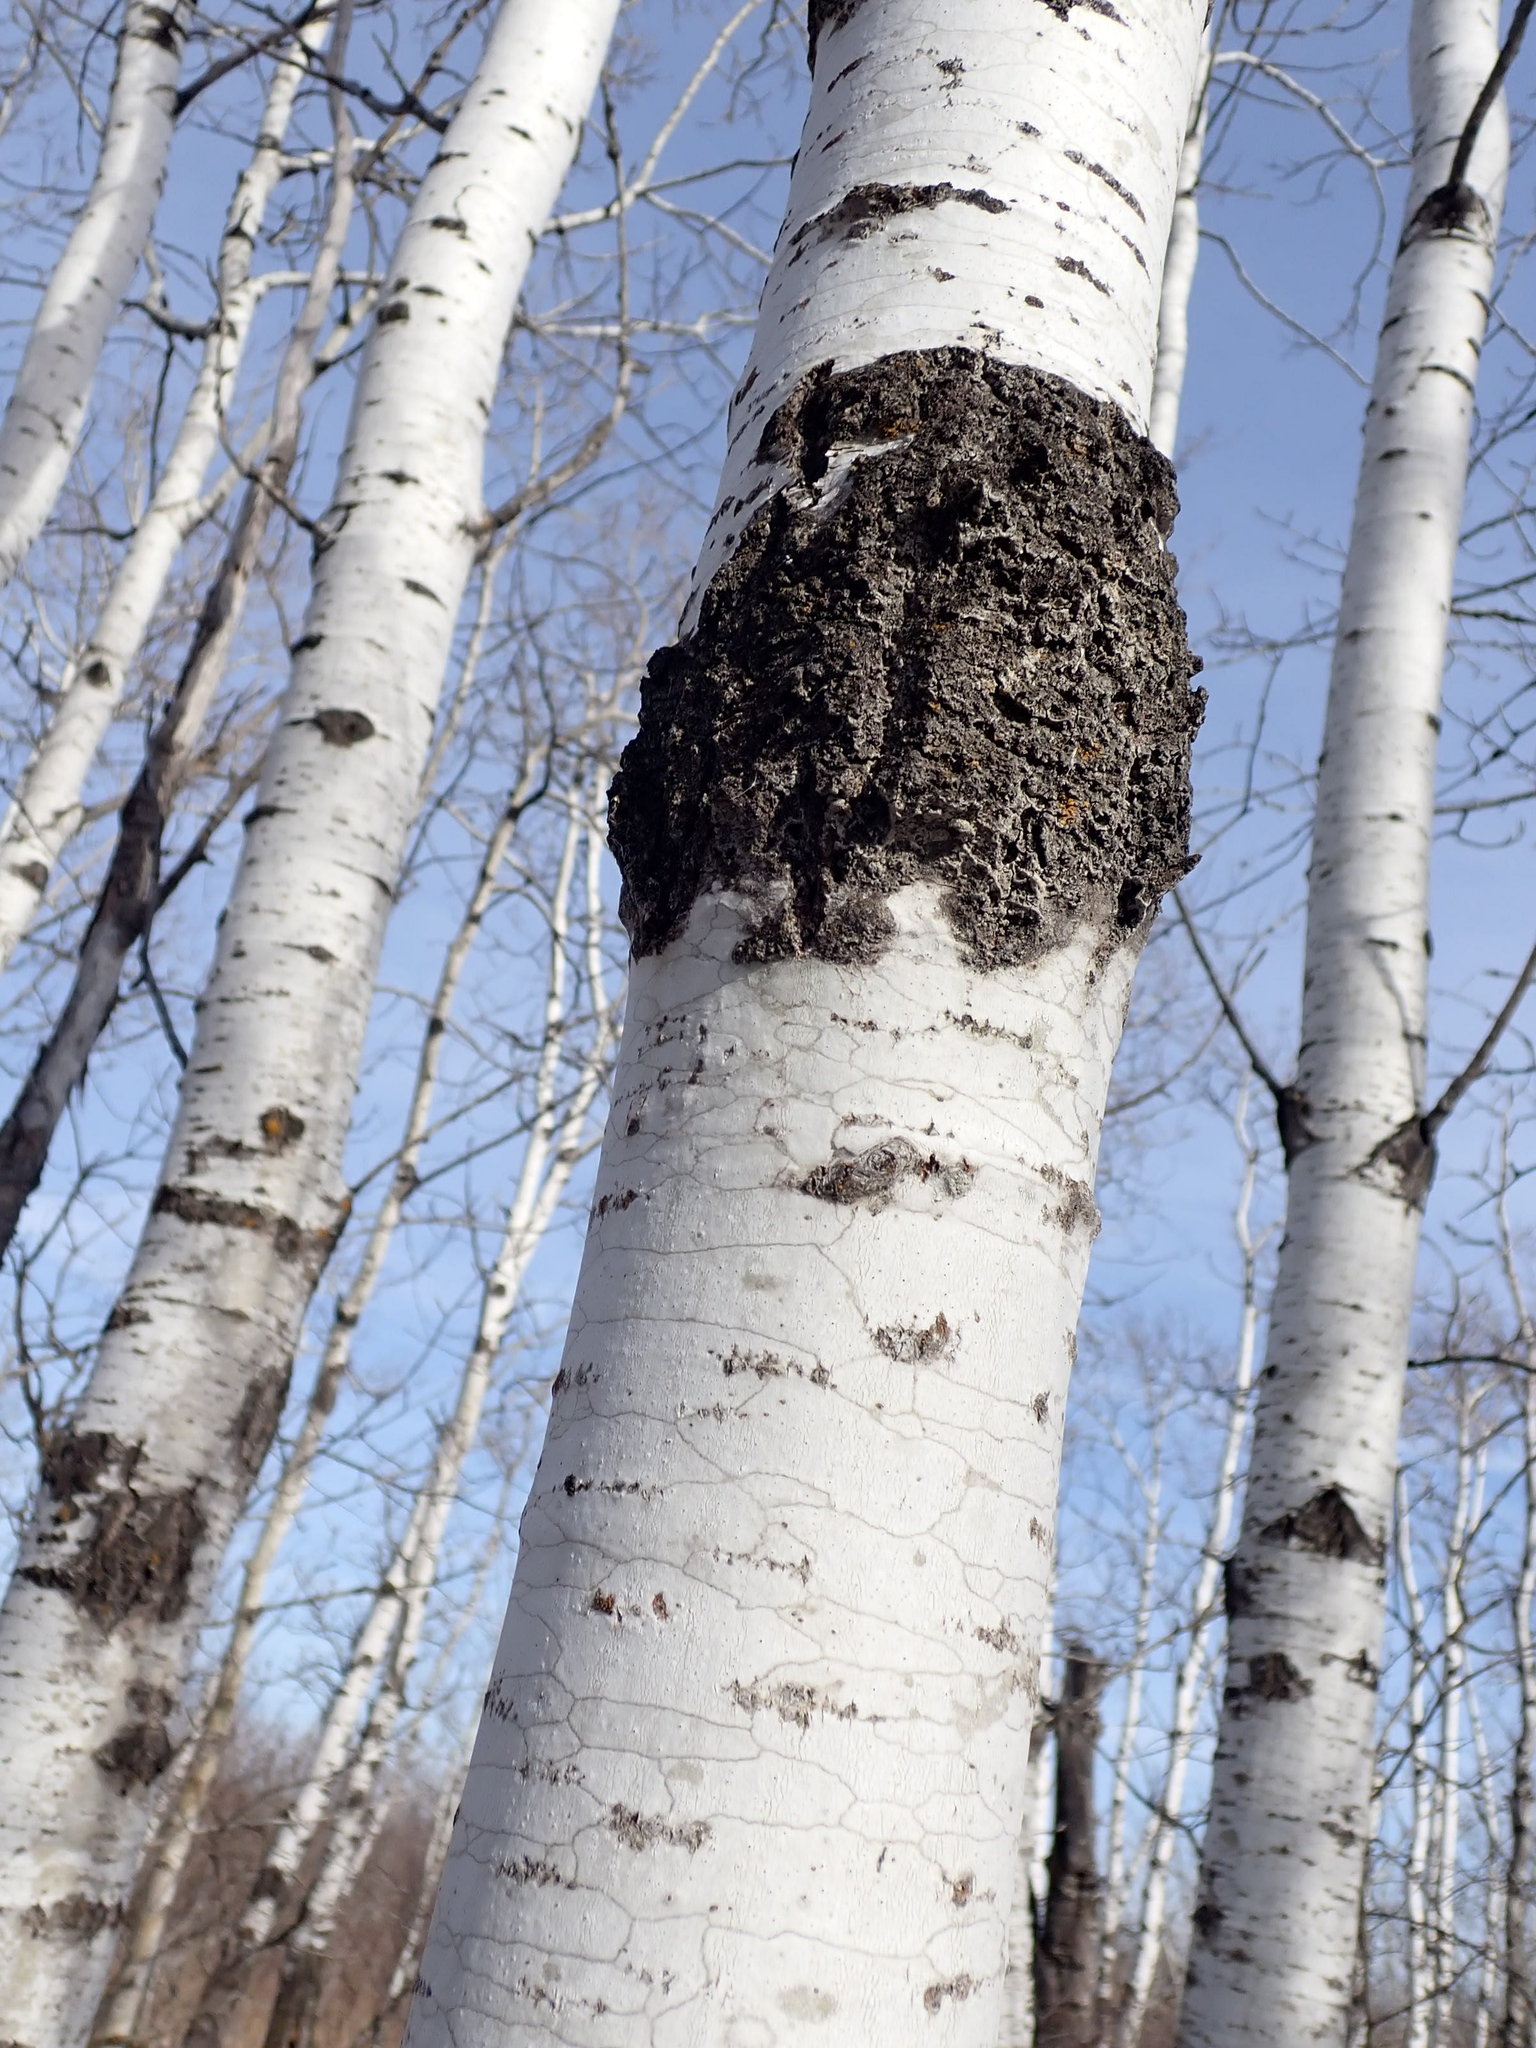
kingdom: Plantae
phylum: Tracheophyta
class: Magnoliopsida
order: Malpighiales
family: Salicaceae
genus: Populus
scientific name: Populus tremuloides
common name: Quaking aspen
